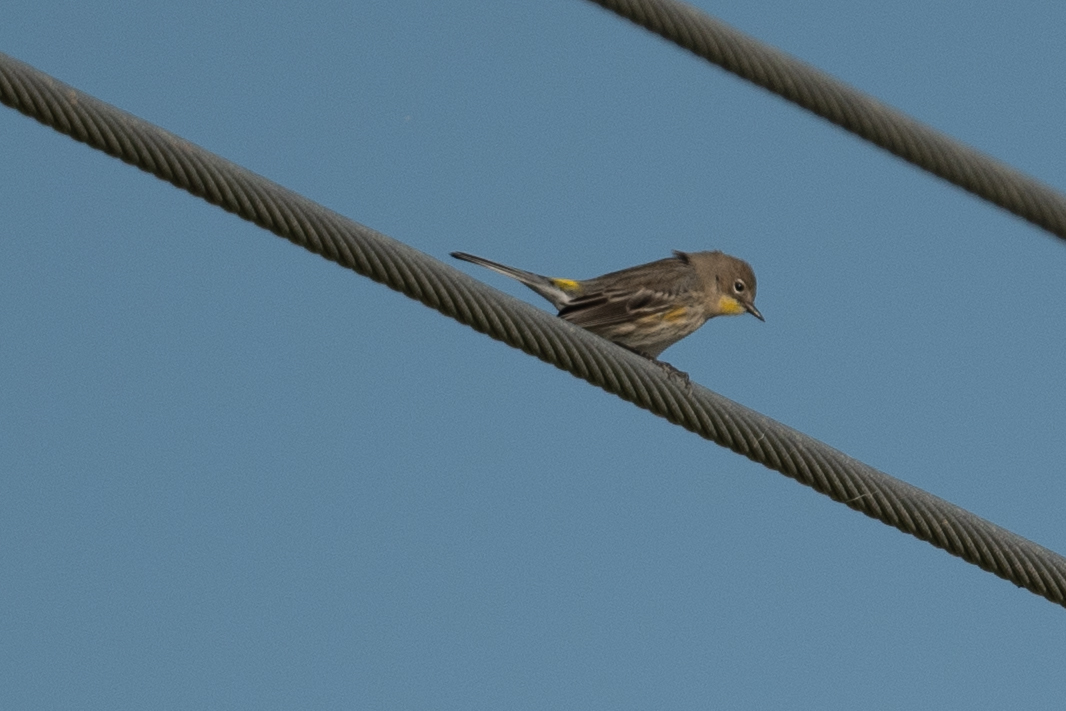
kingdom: Animalia
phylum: Chordata
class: Aves
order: Passeriformes
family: Parulidae
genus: Setophaga
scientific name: Setophaga coronata
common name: Myrtle warbler
